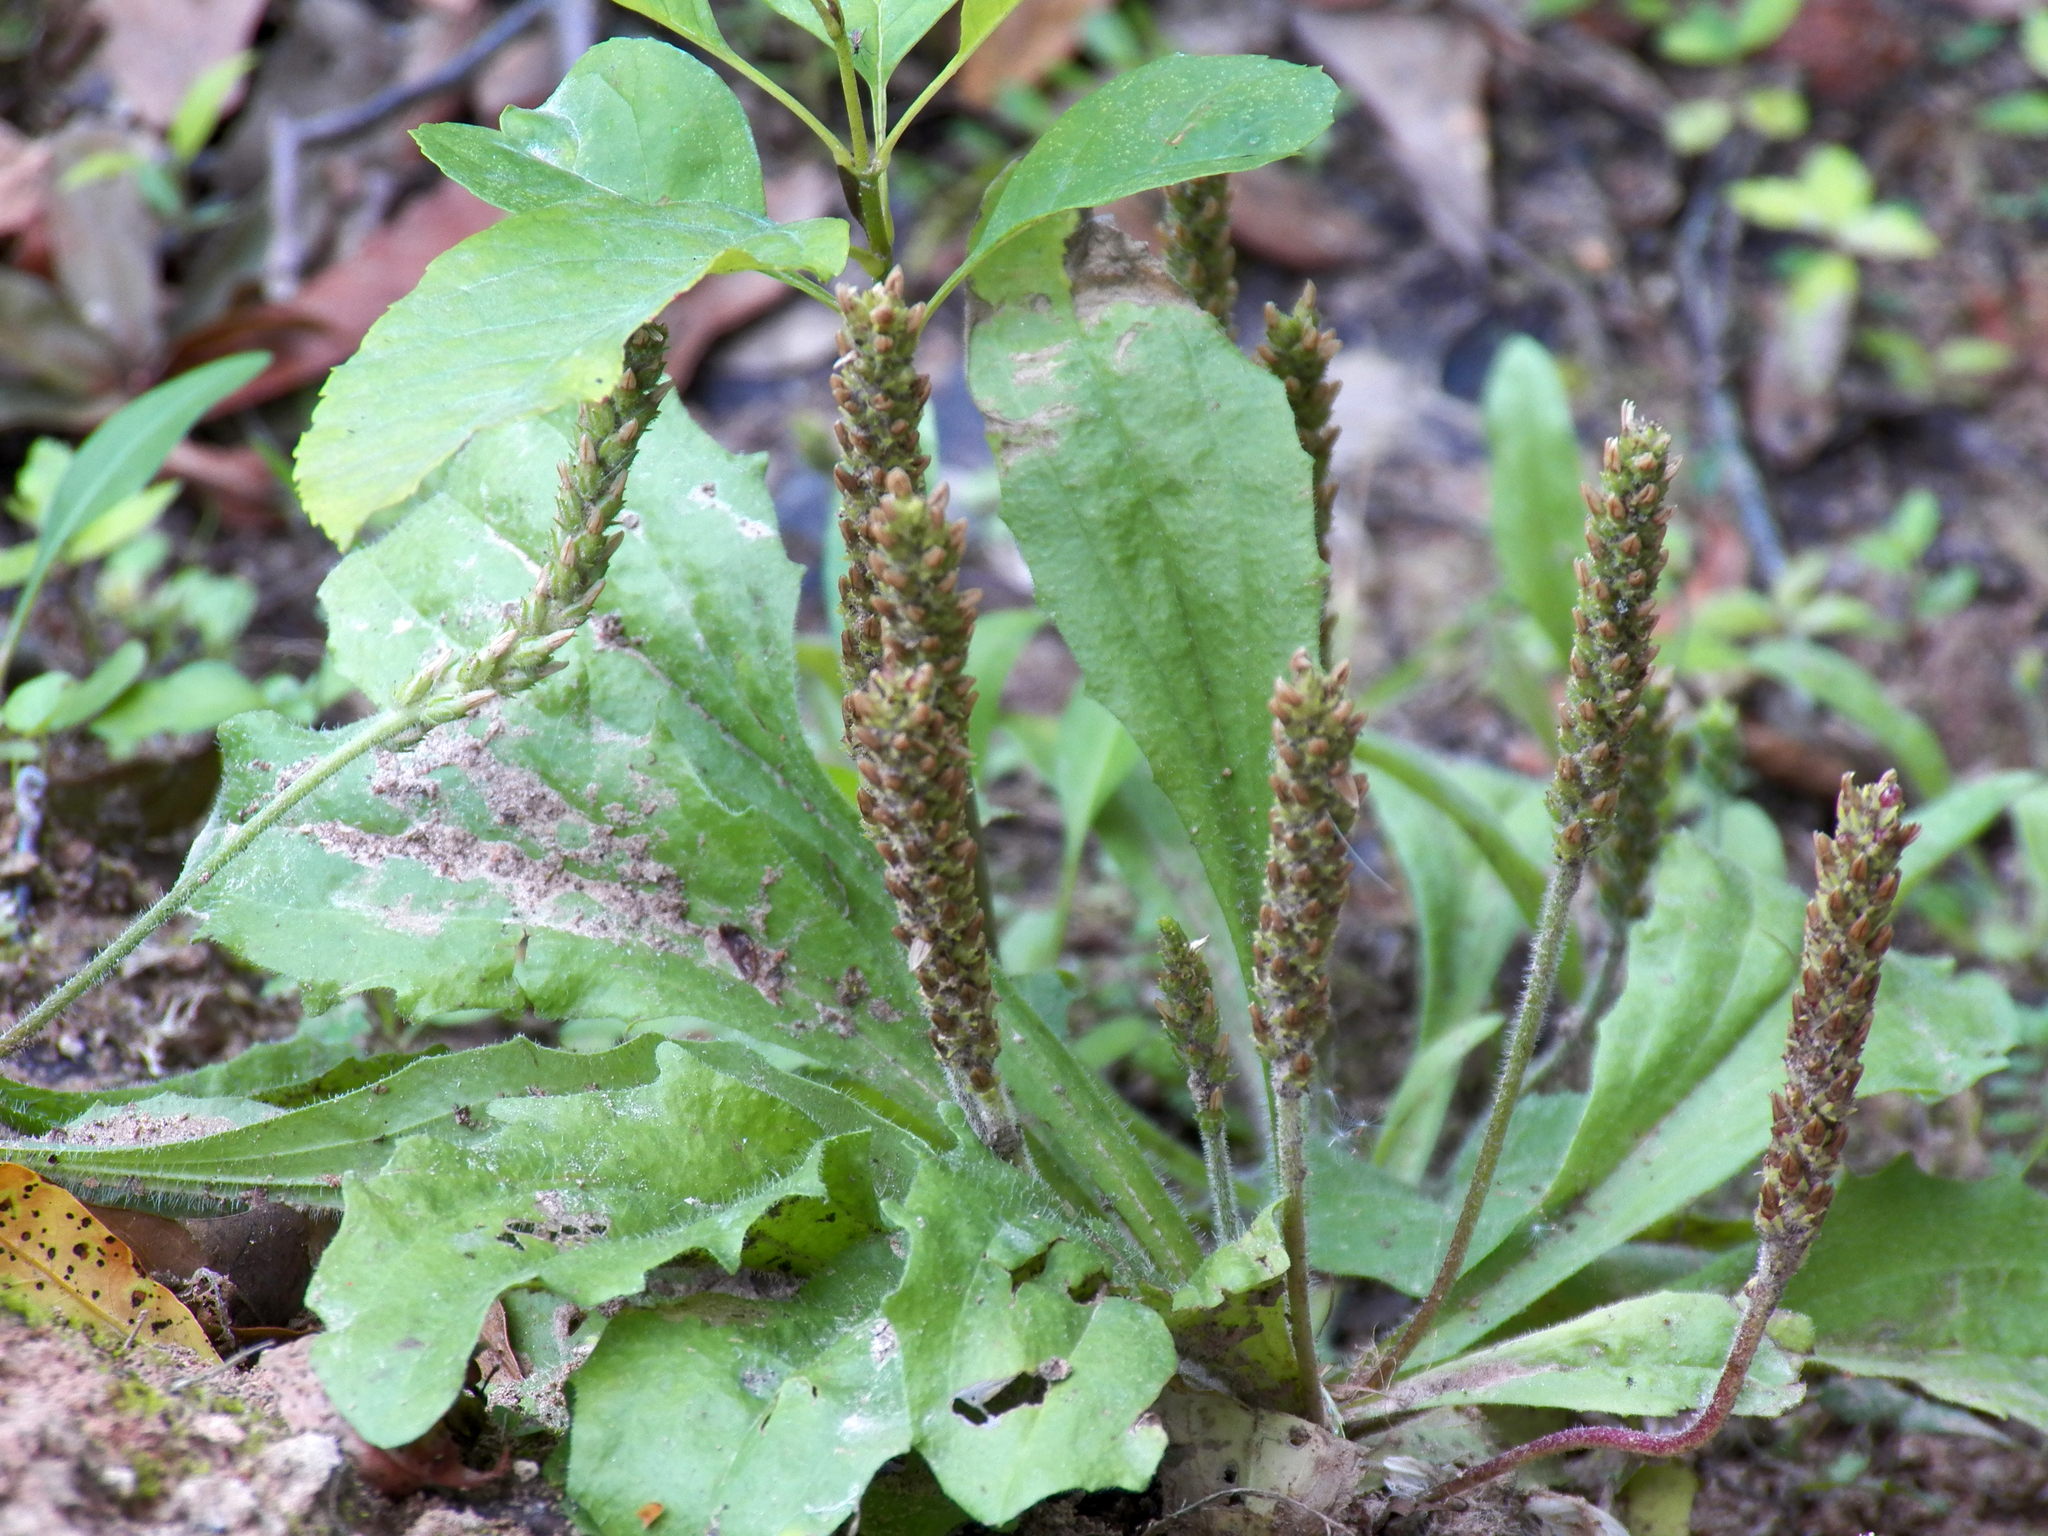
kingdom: Plantae
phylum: Tracheophyta
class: Magnoliopsida
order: Lamiales
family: Plantaginaceae
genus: Plantago
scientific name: Plantago rhodosperma
